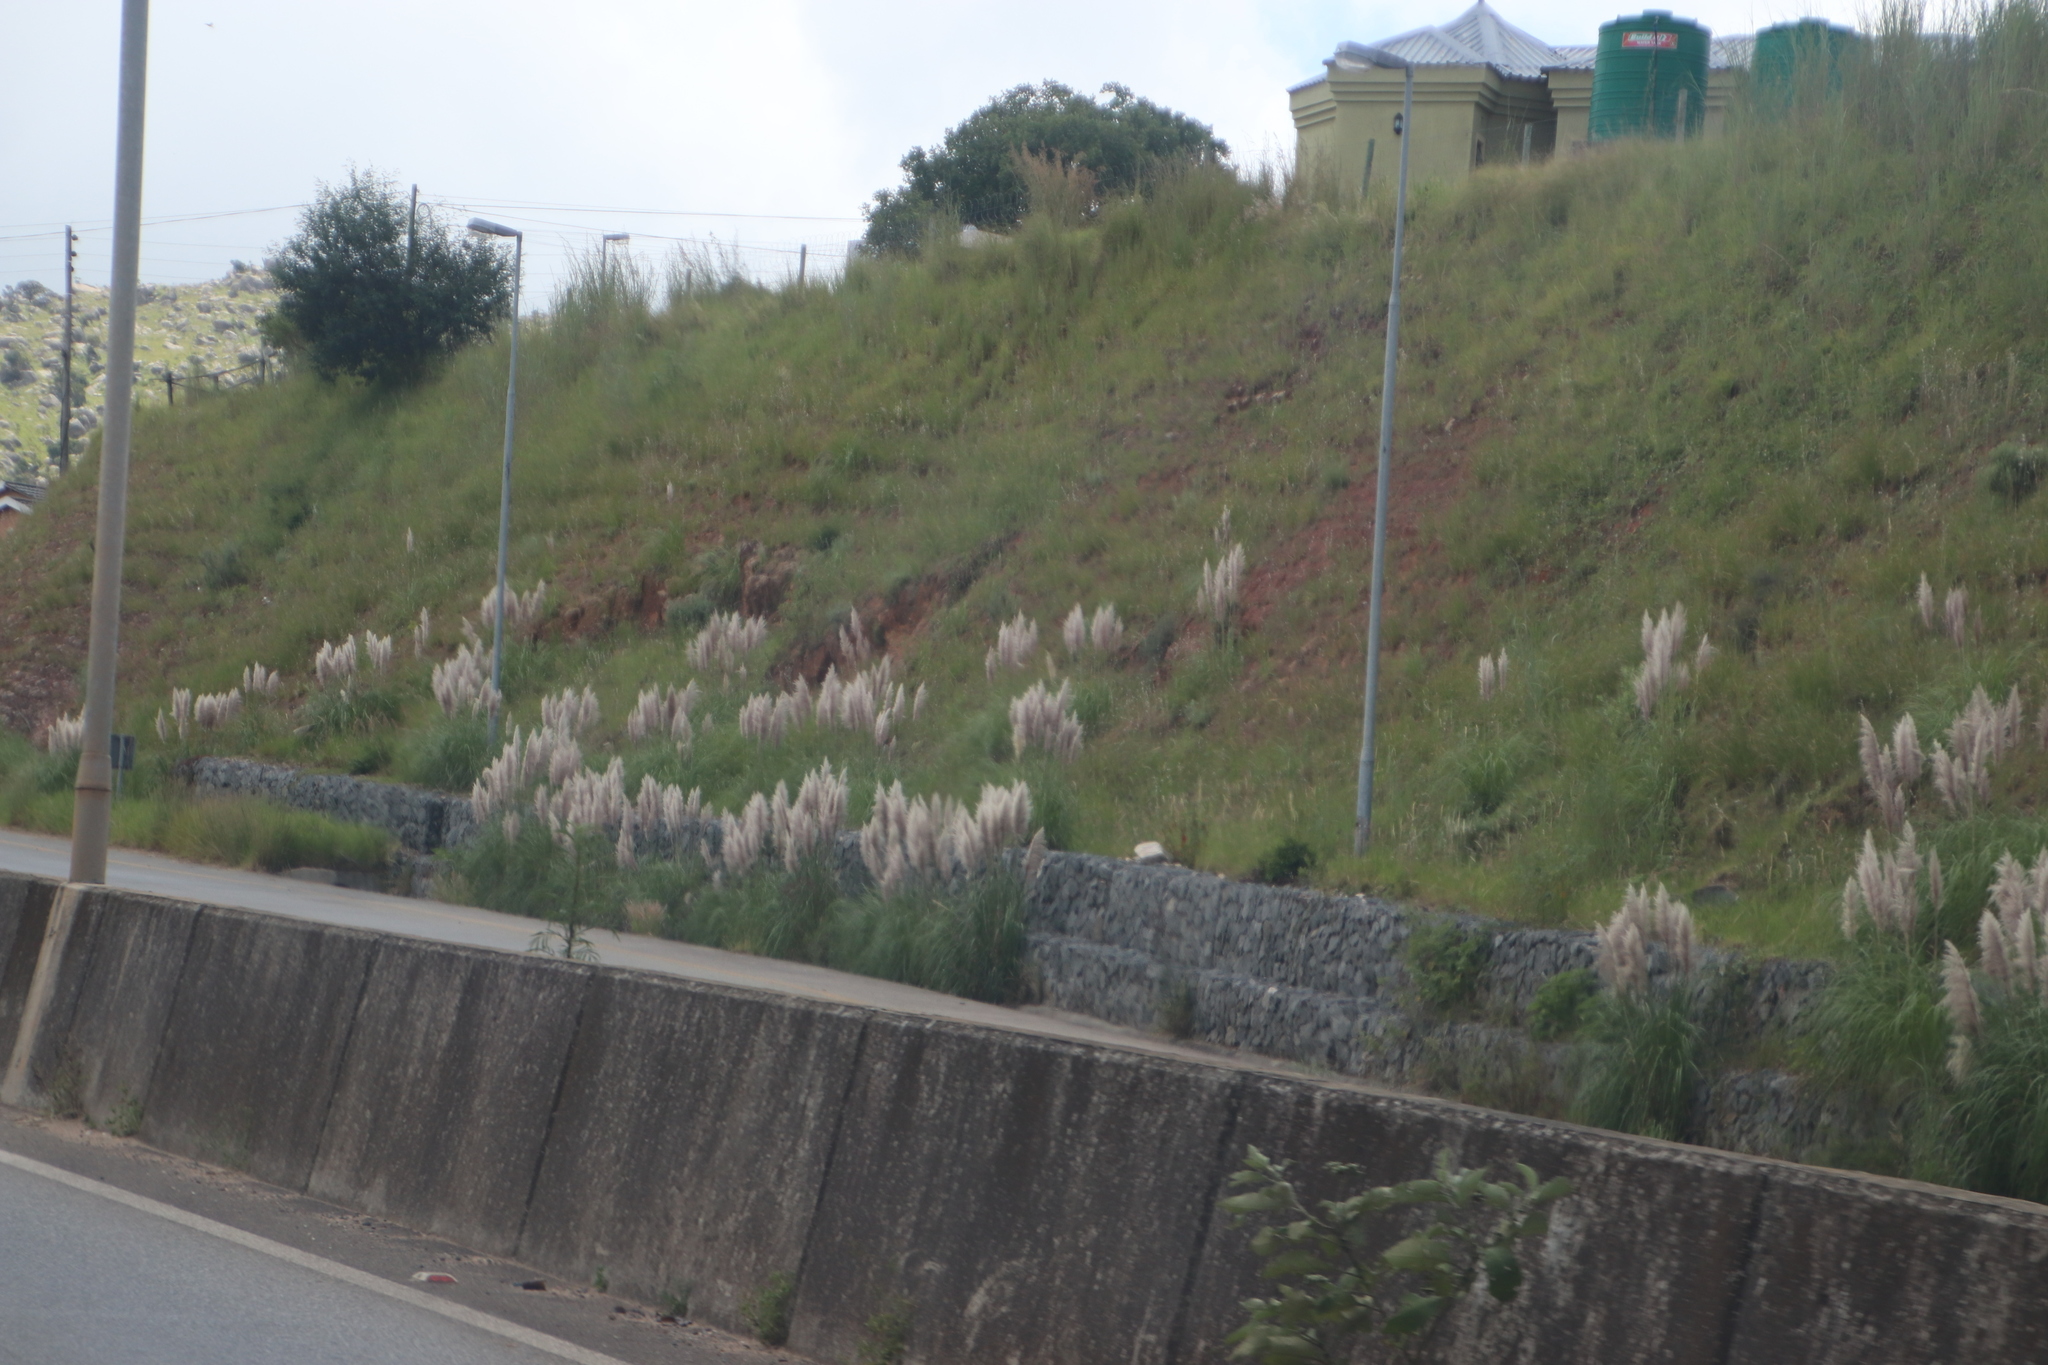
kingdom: Plantae
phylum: Tracheophyta
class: Liliopsida
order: Poales
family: Poaceae
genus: Cortaderia
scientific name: Cortaderia selloana
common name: Uruguayan pampas grass
